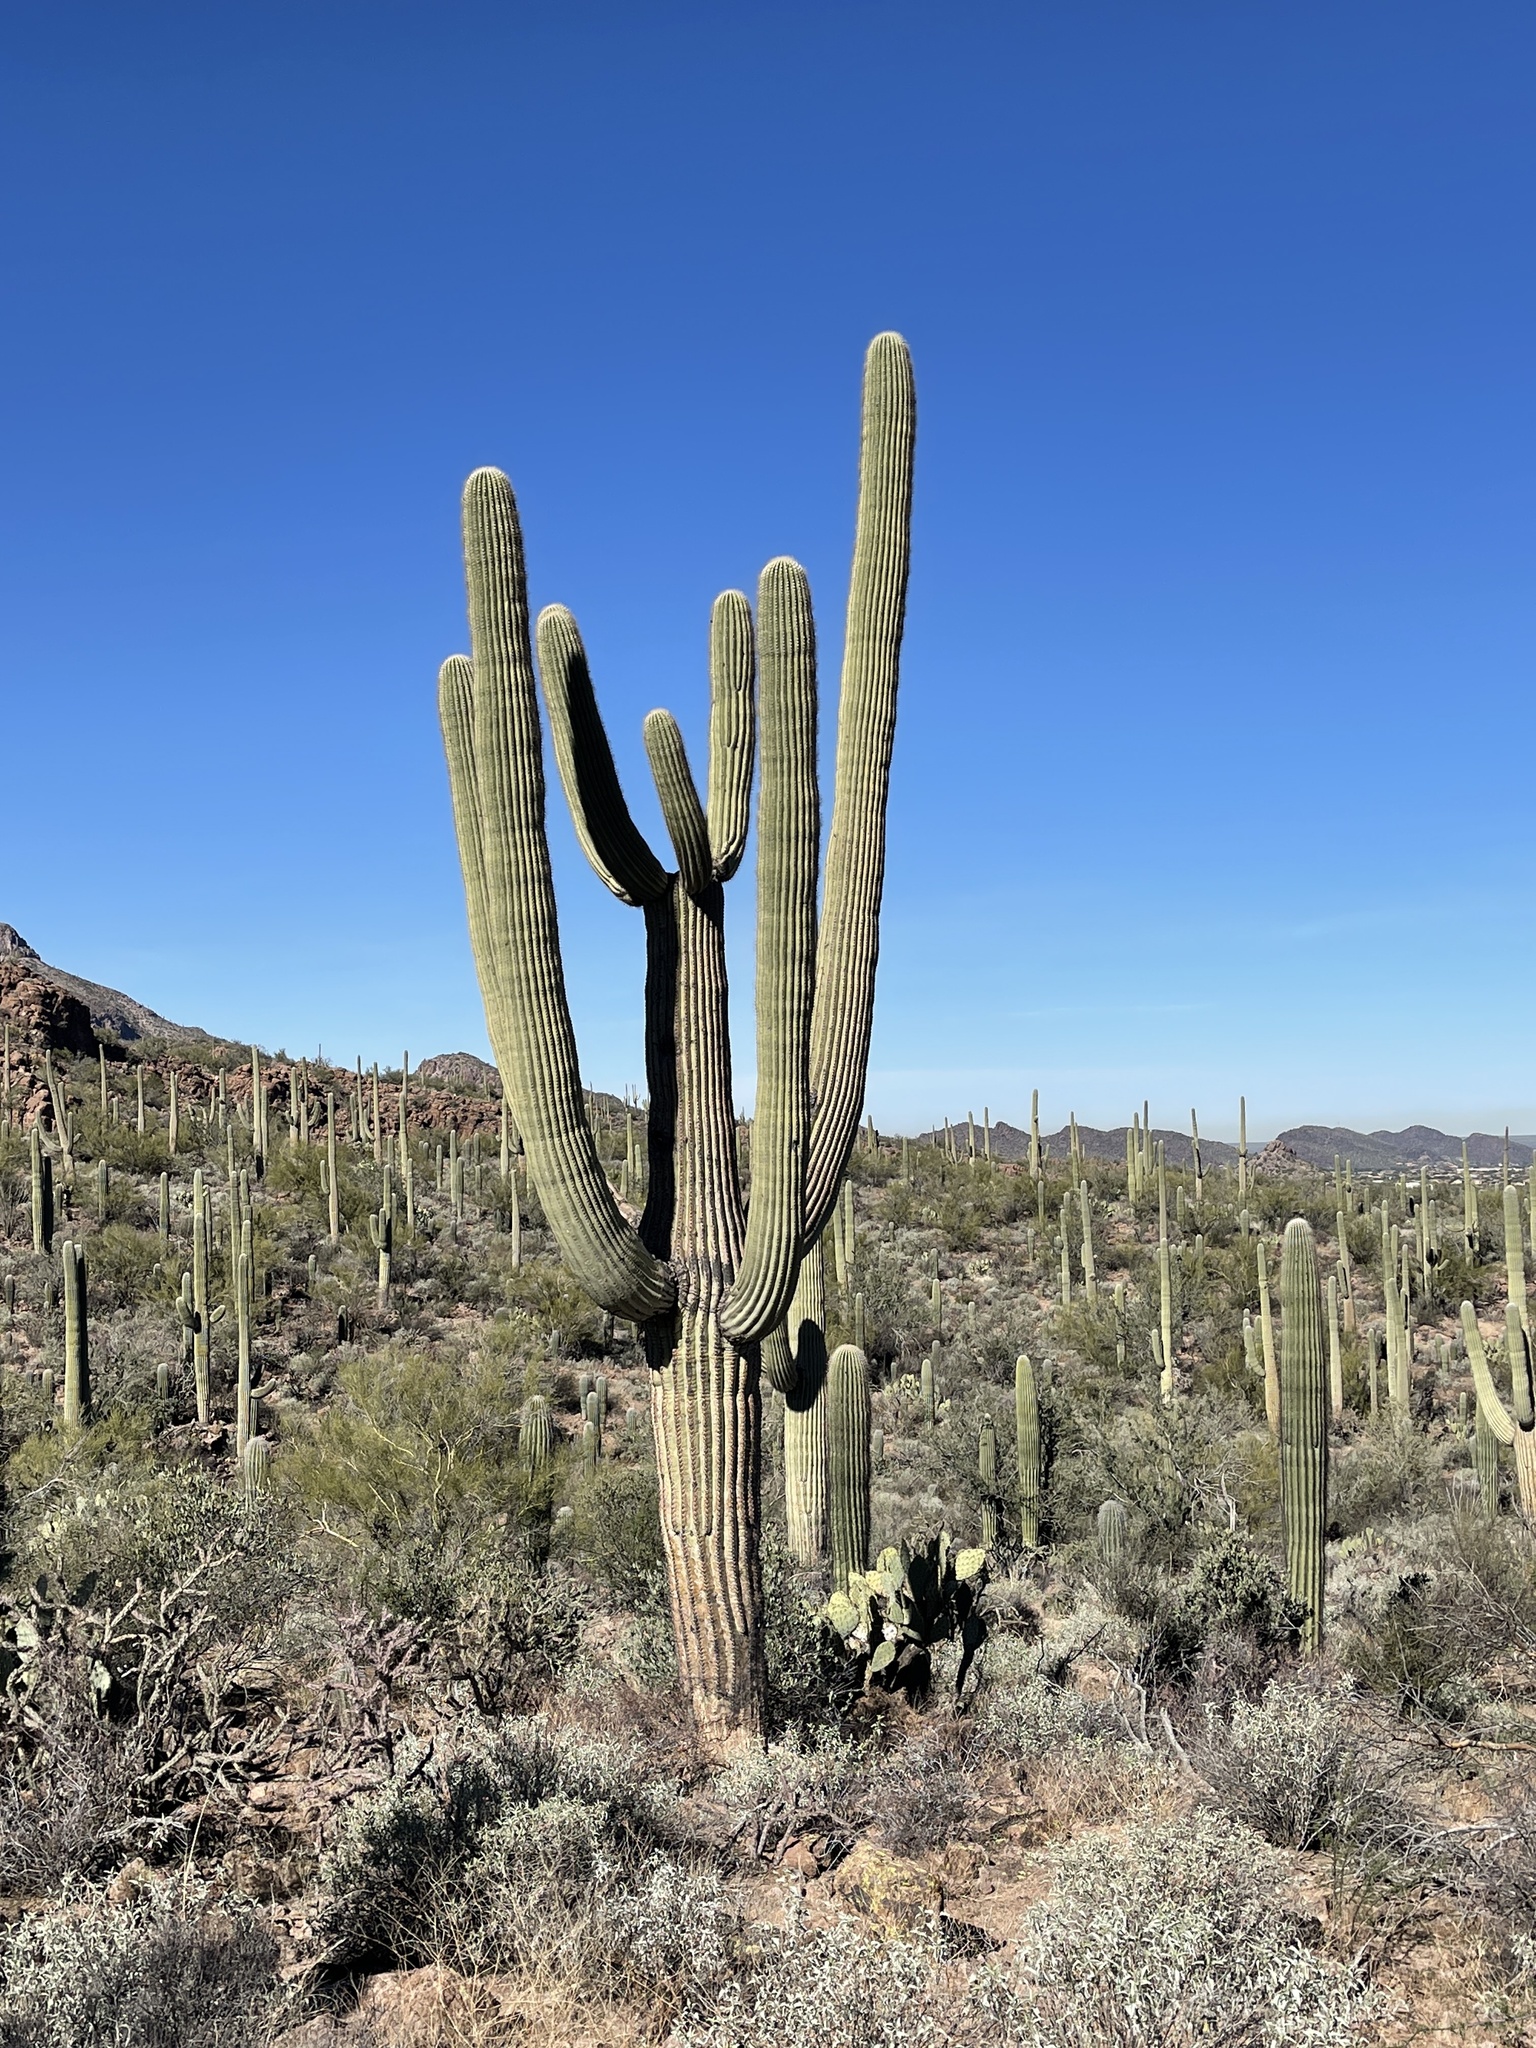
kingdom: Plantae
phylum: Tracheophyta
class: Magnoliopsida
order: Caryophyllales
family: Cactaceae
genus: Carnegiea
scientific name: Carnegiea gigantea
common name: Saguaro
